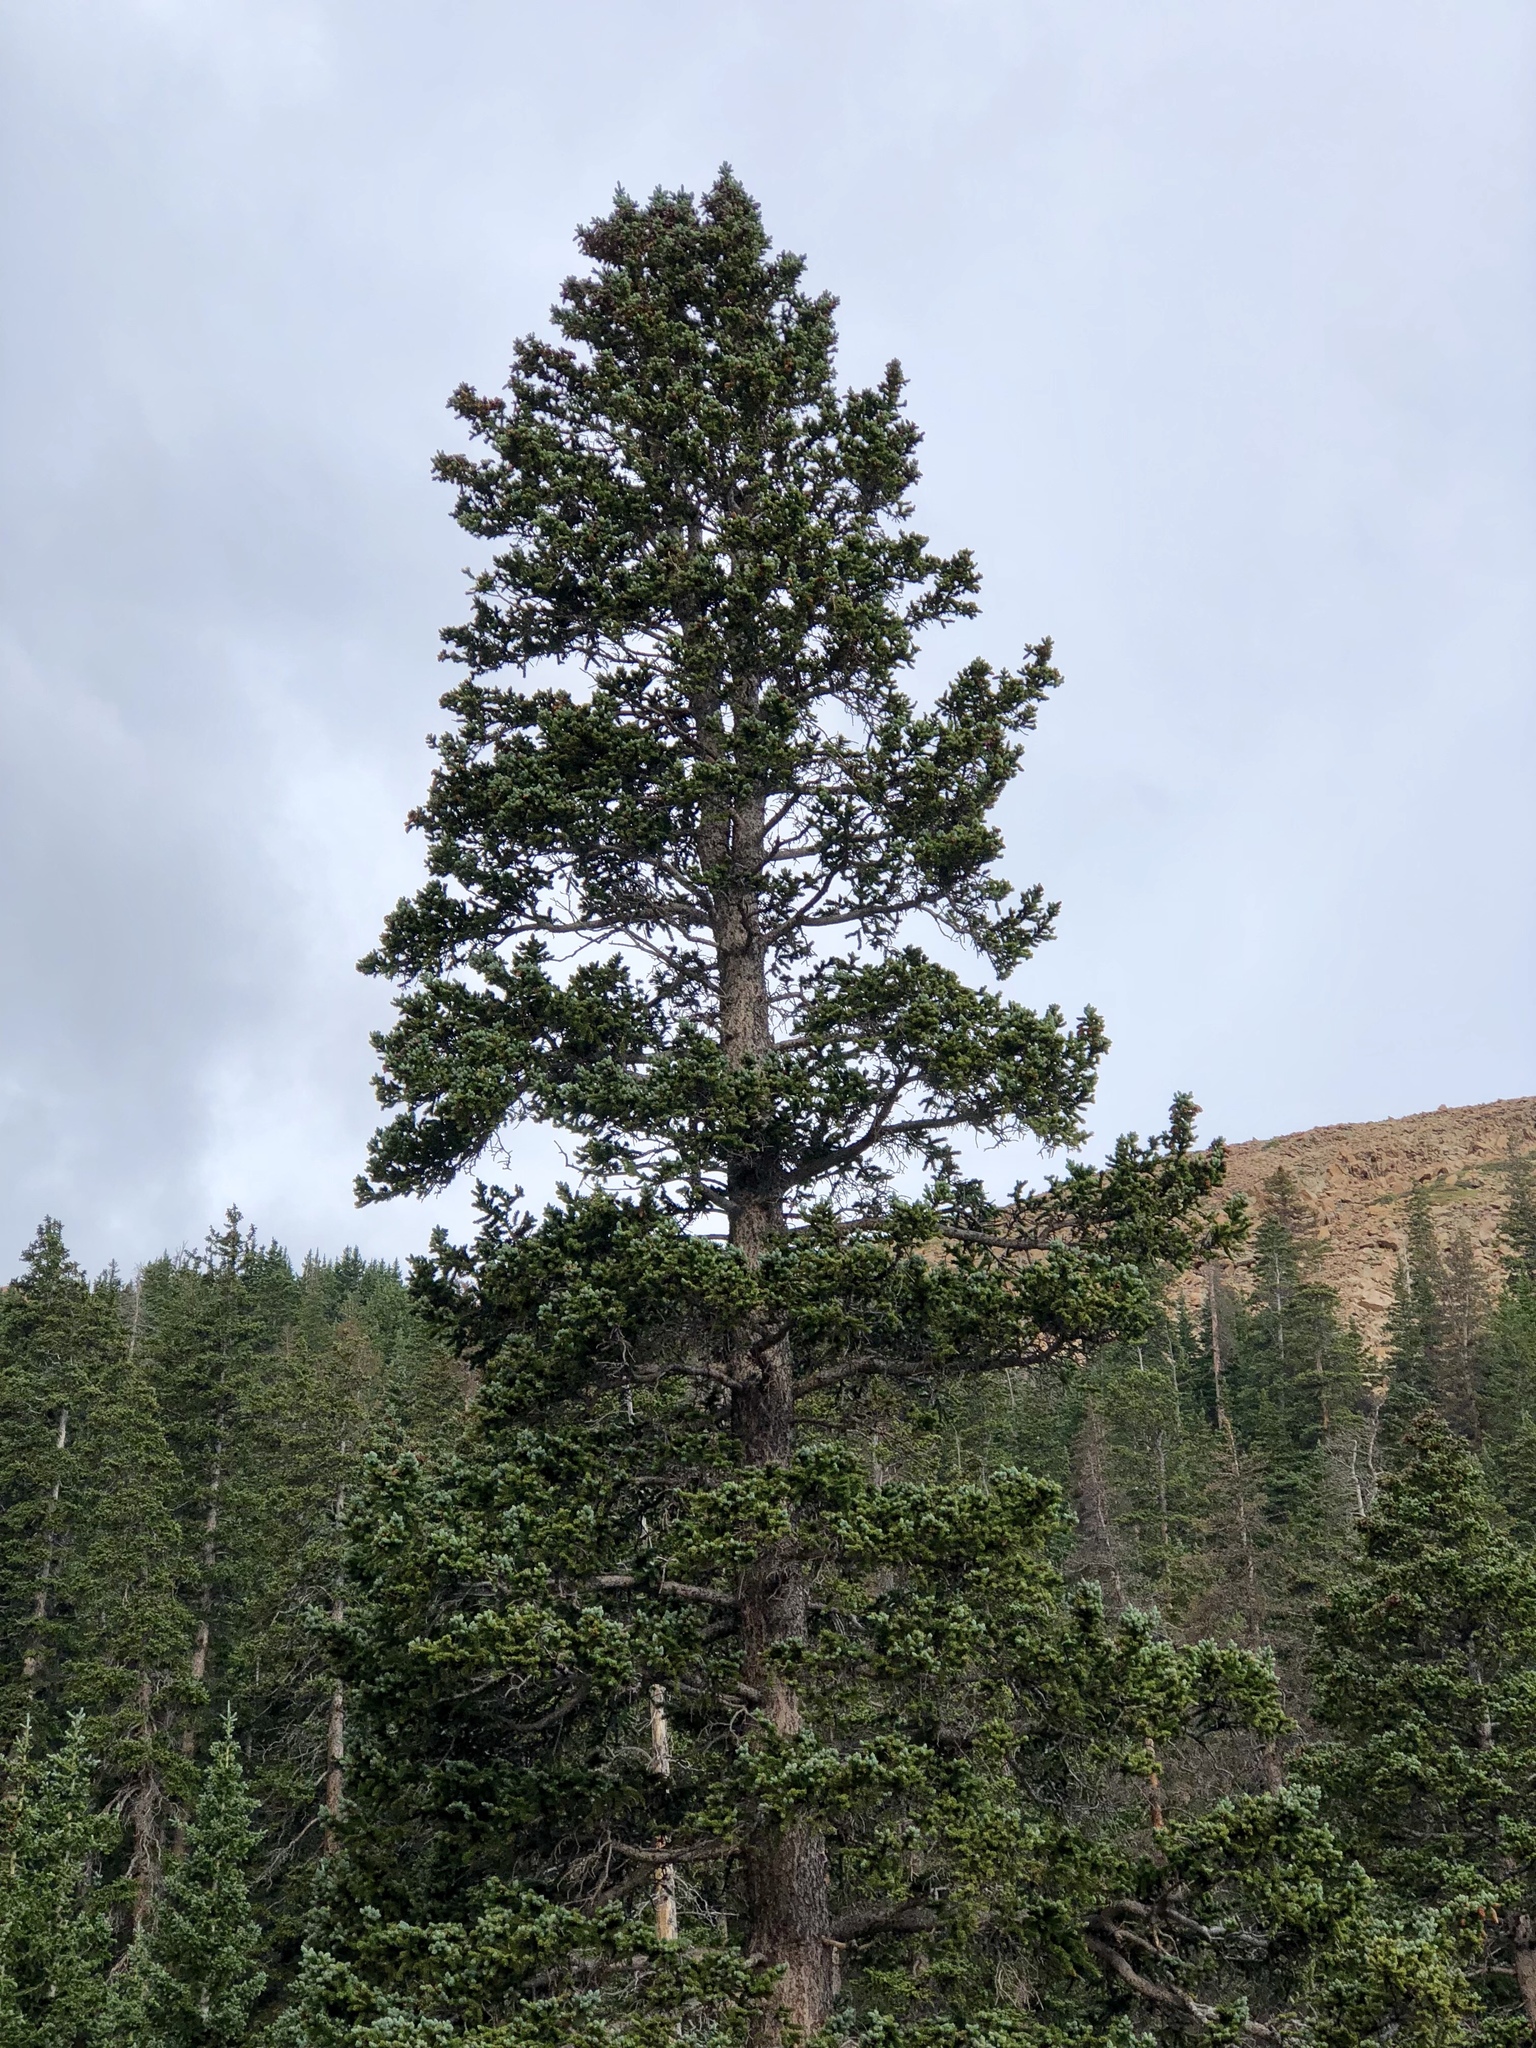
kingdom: Plantae
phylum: Tracheophyta
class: Pinopsida
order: Pinales
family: Pinaceae
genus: Pseudotsuga
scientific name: Pseudotsuga menziesii
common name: Douglas fir
